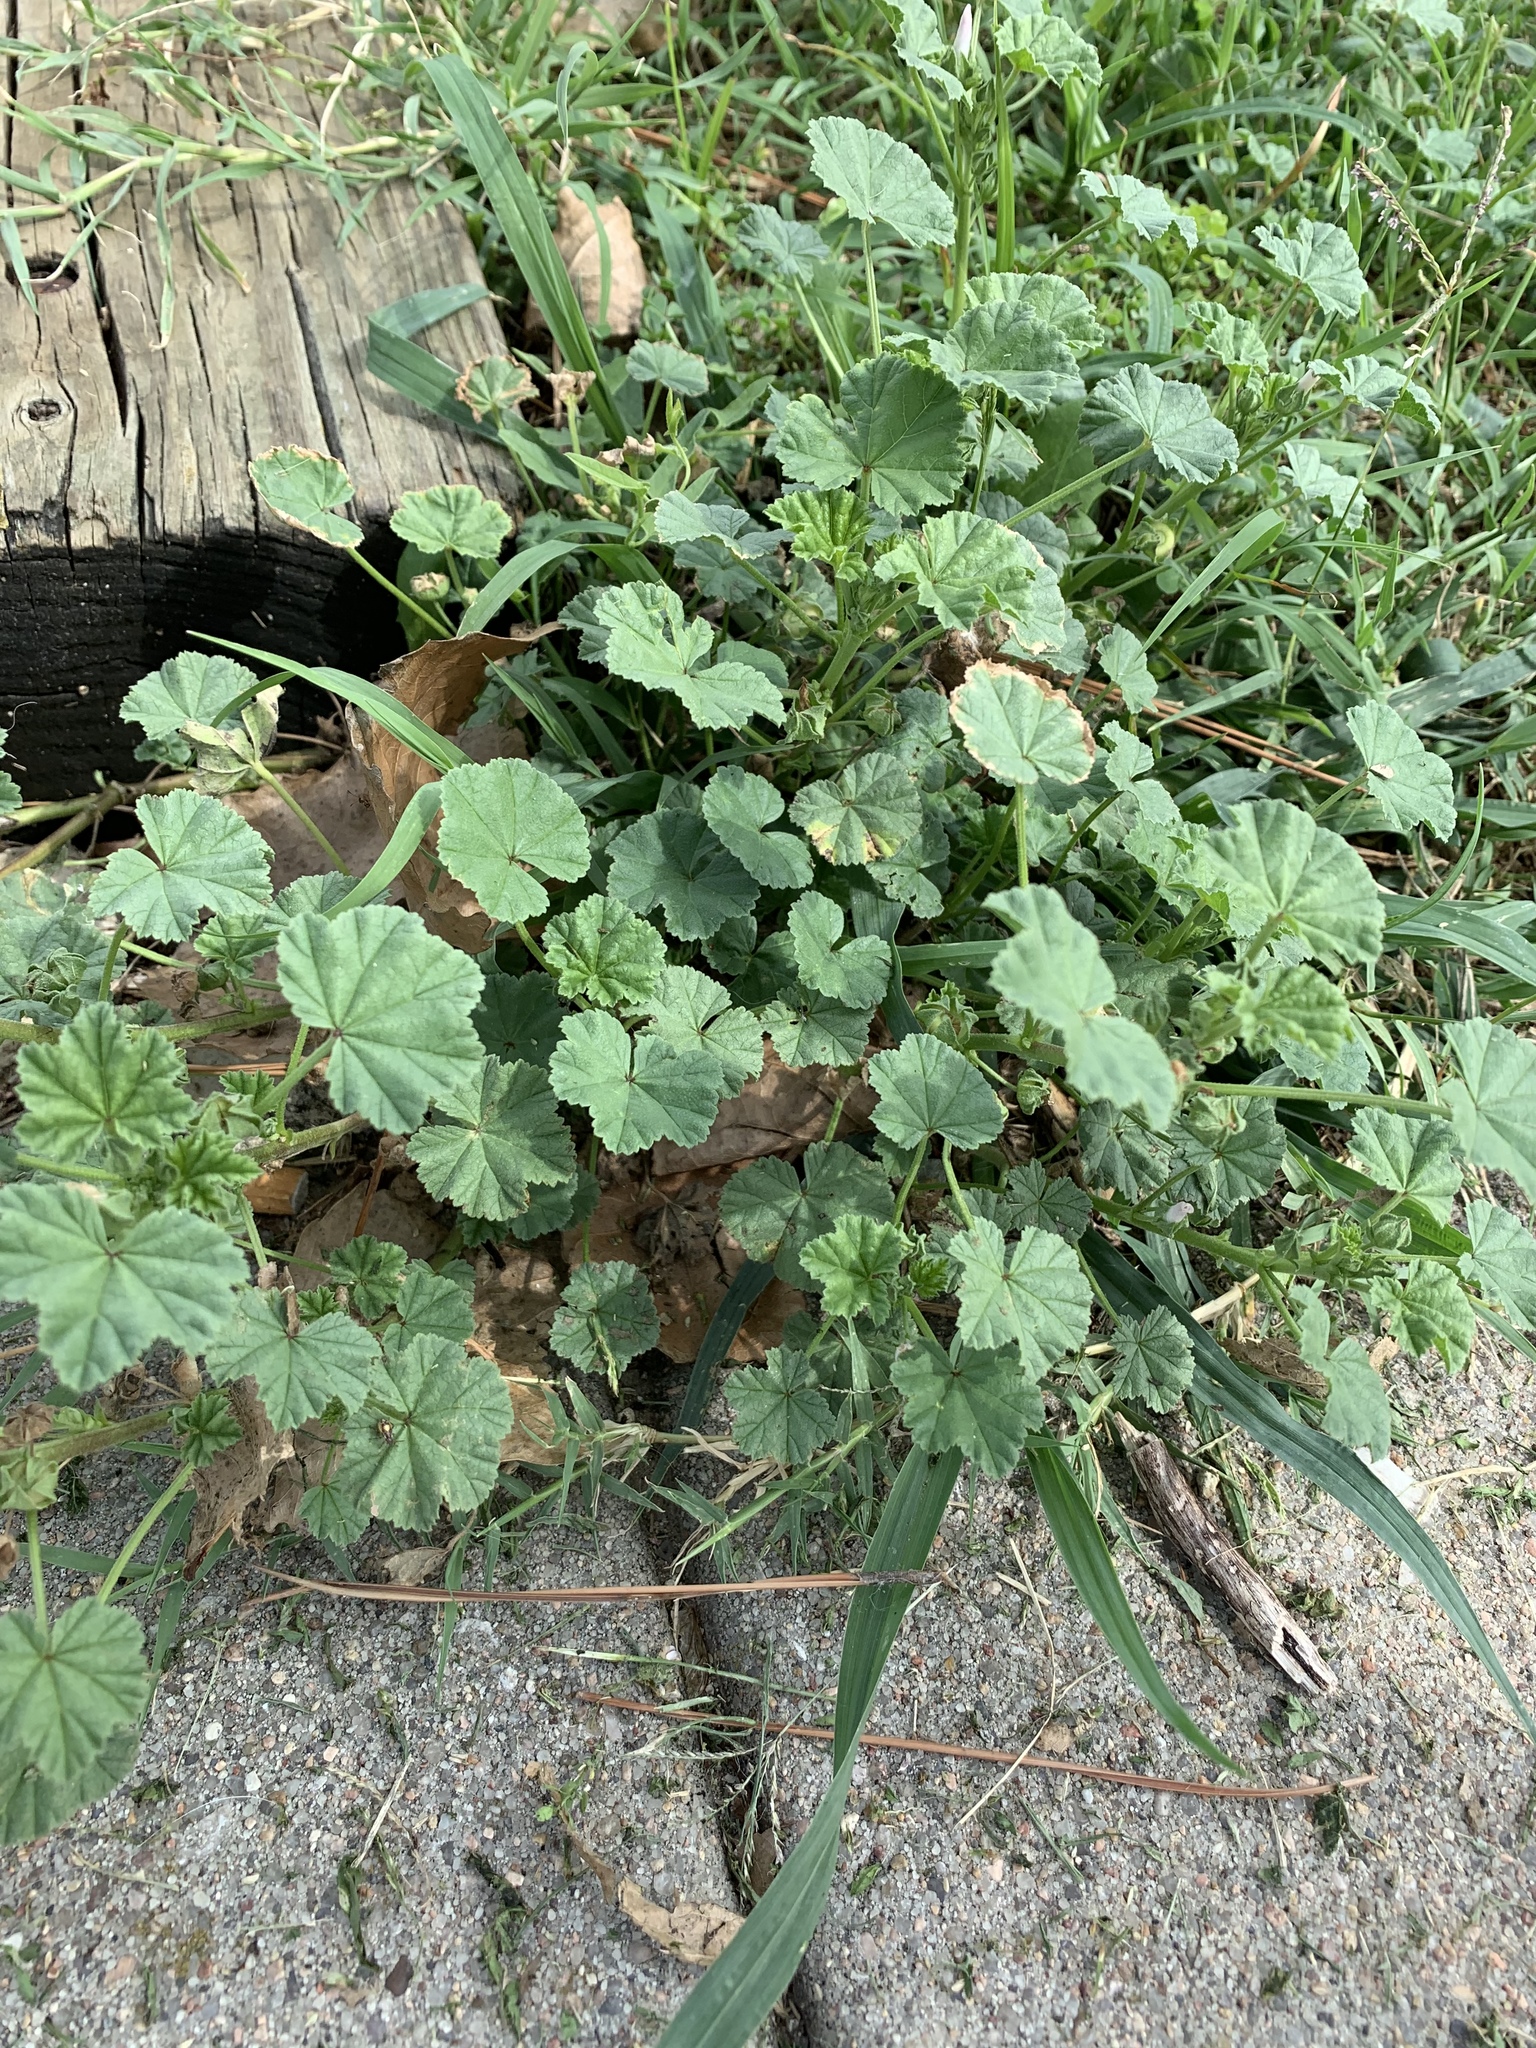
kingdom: Plantae
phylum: Tracheophyta
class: Magnoliopsida
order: Malvales
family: Malvaceae
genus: Malva
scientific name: Malva neglecta
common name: Common mallow
